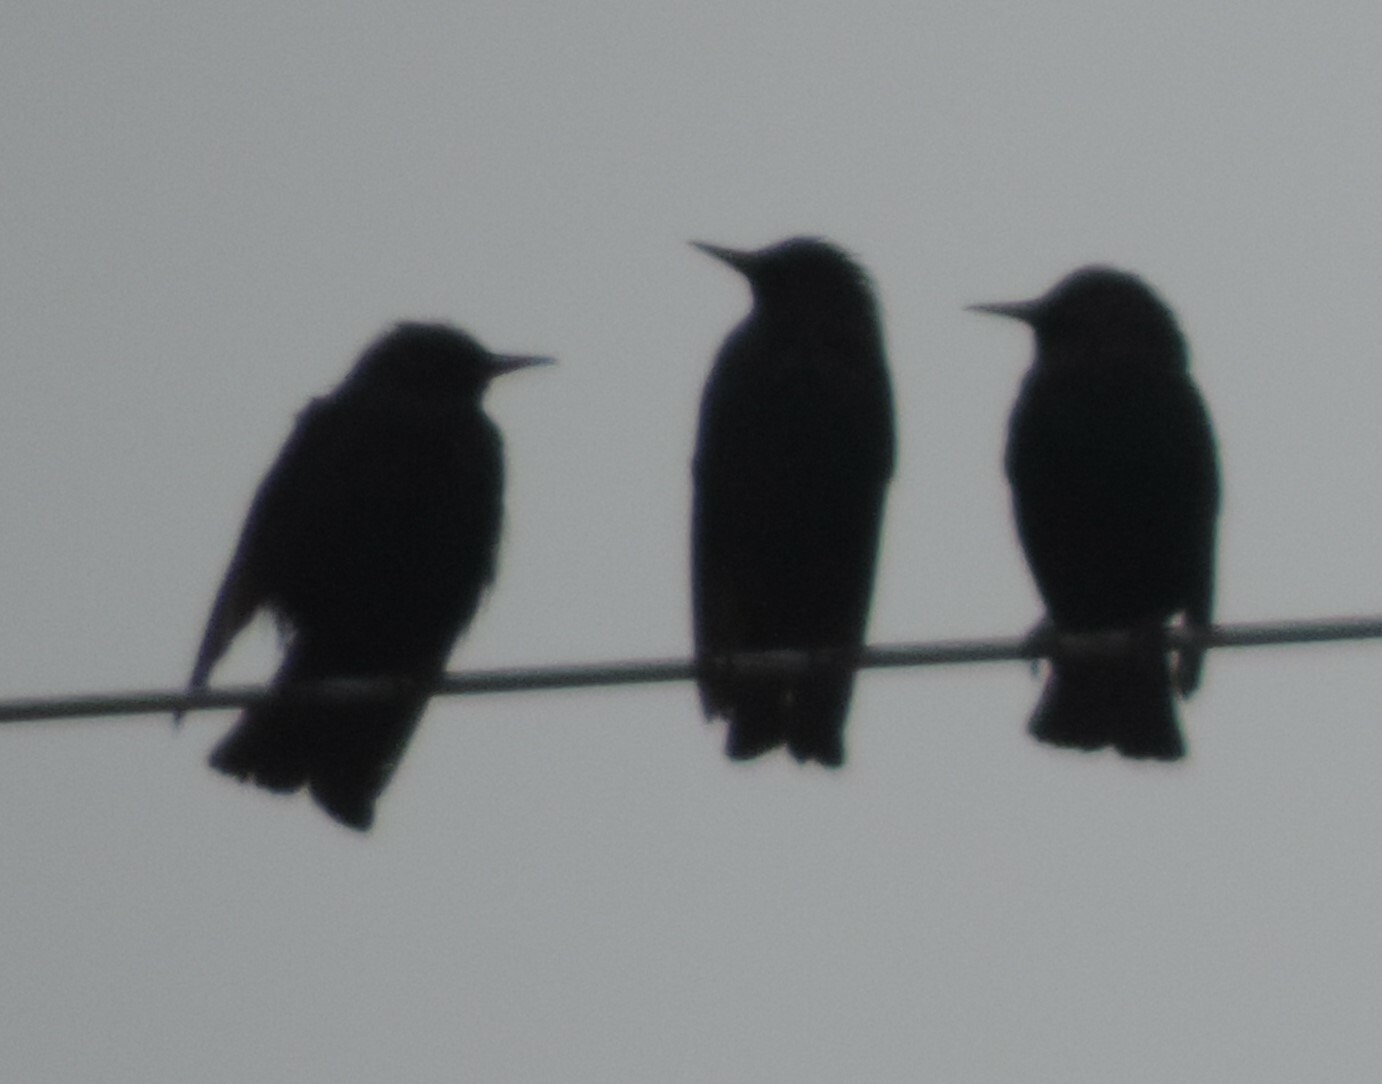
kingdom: Animalia
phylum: Chordata
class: Aves
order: Passeriformes
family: Sturnidae
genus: Sturnus
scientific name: Sturnus vulgaris
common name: Common starling
